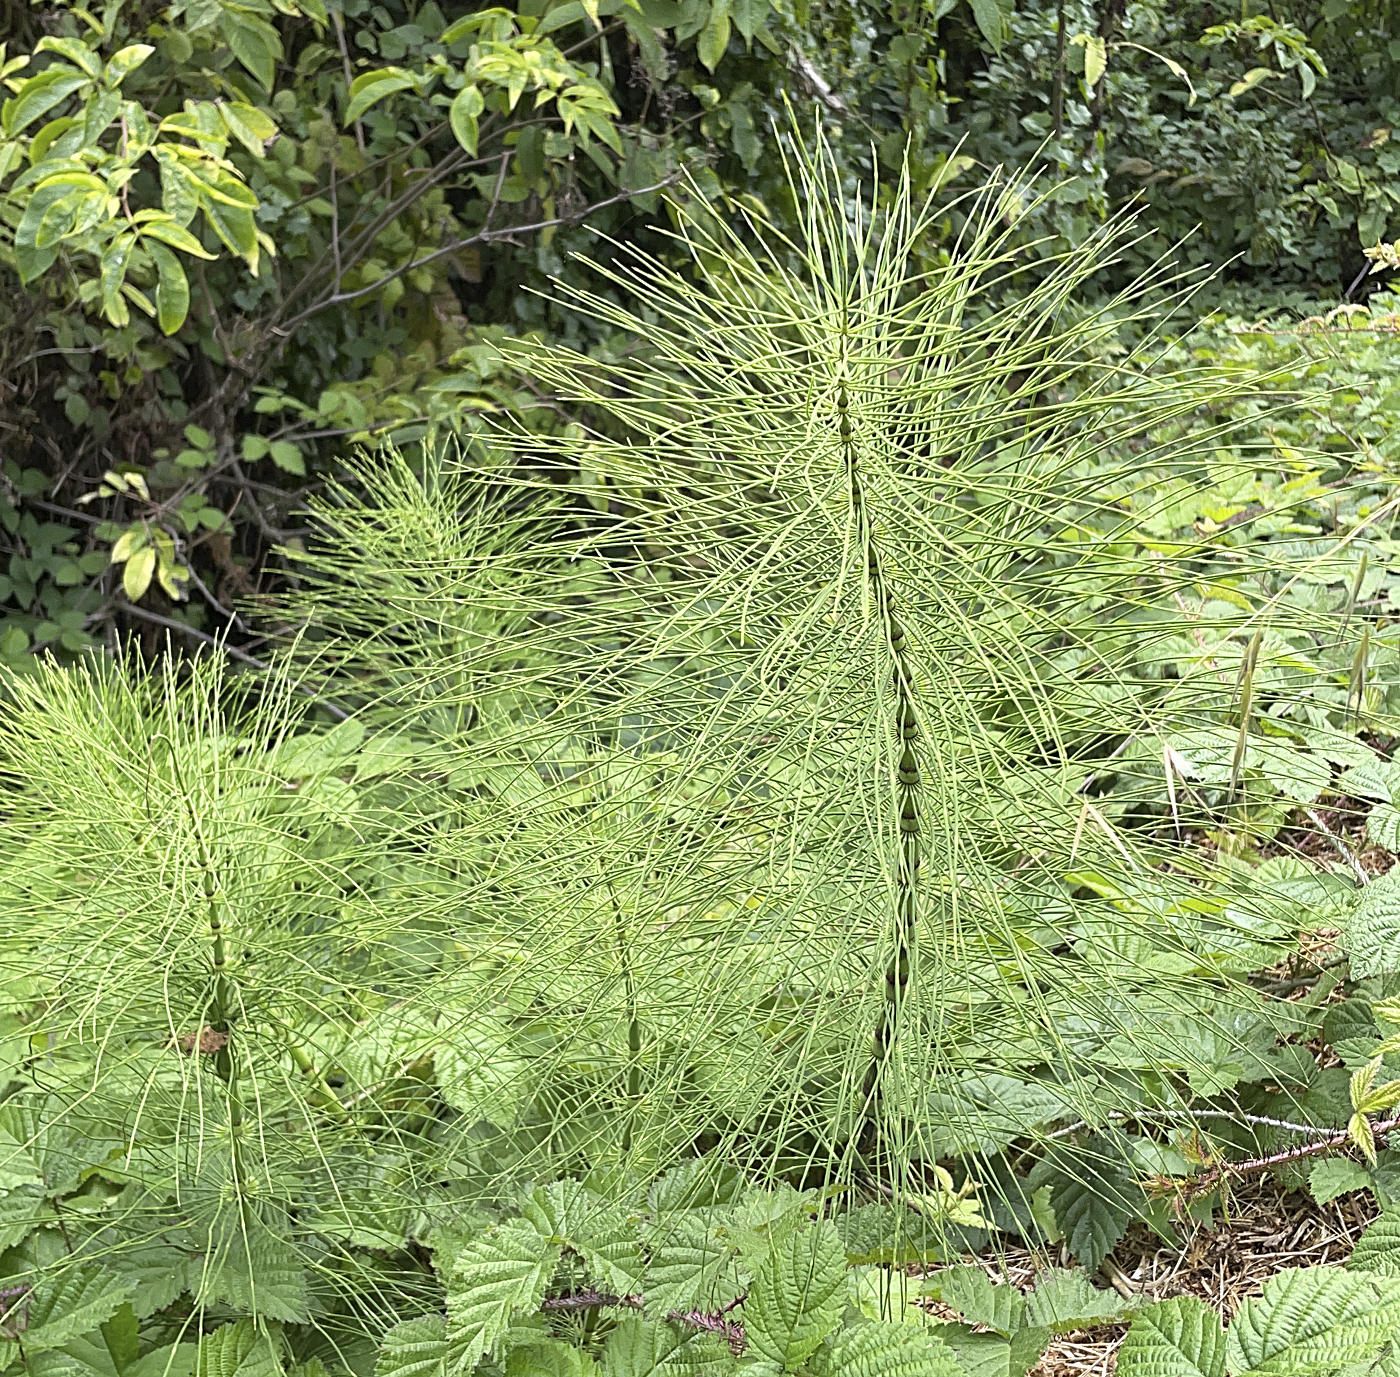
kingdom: Plantae
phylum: Tracheophyta
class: Polypodiopsida
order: Equisetales
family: Equisetaceae
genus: Equisetum
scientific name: Equisetum telmateia
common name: Great horsetail
